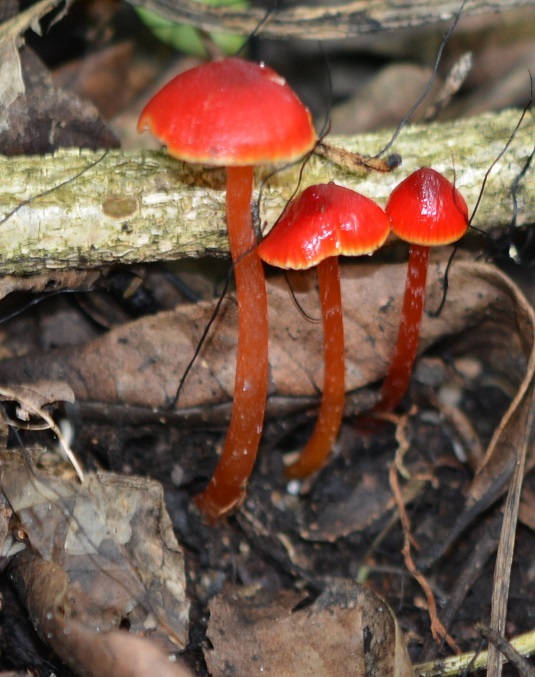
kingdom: Fungi
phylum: Basidiomycota
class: Agaricomycetes
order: Agaricales
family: Hygrophoraceae
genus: Hygrocybe
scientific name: Hygrocybe cantharellus
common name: Goblet waxcap
